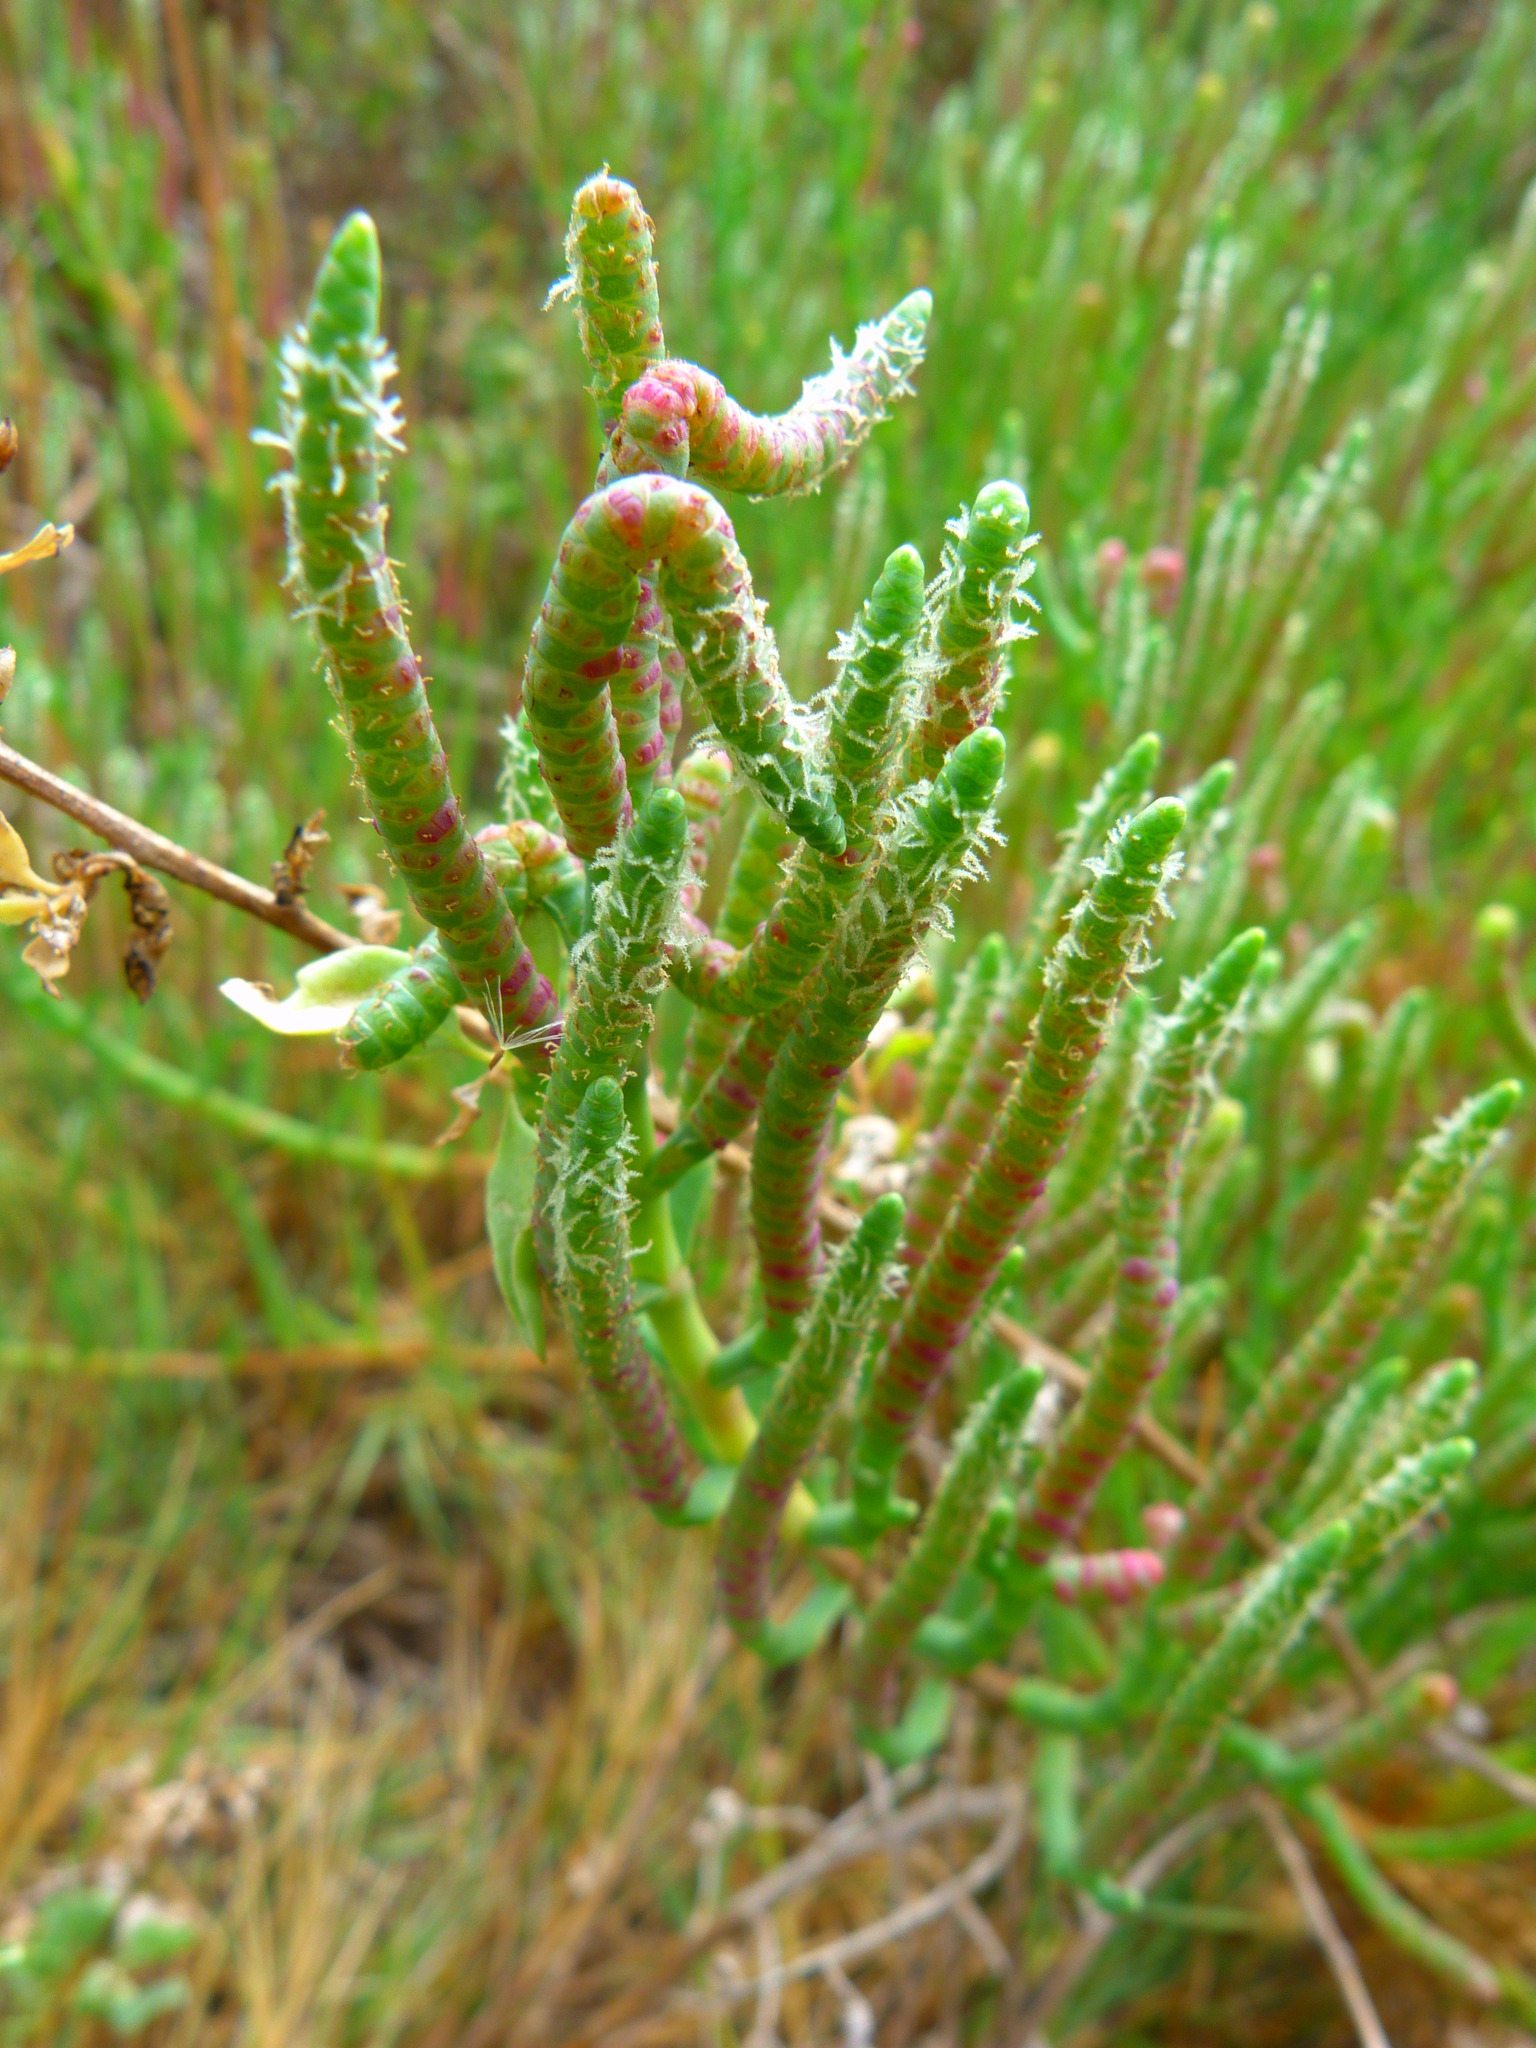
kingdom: Plantae
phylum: Tracheophyta
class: Magnoliopsida
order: Caryophyllales
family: Amaranthaceae
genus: Salicornia
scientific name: Salicornia pacifica
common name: Pacific glasswort
